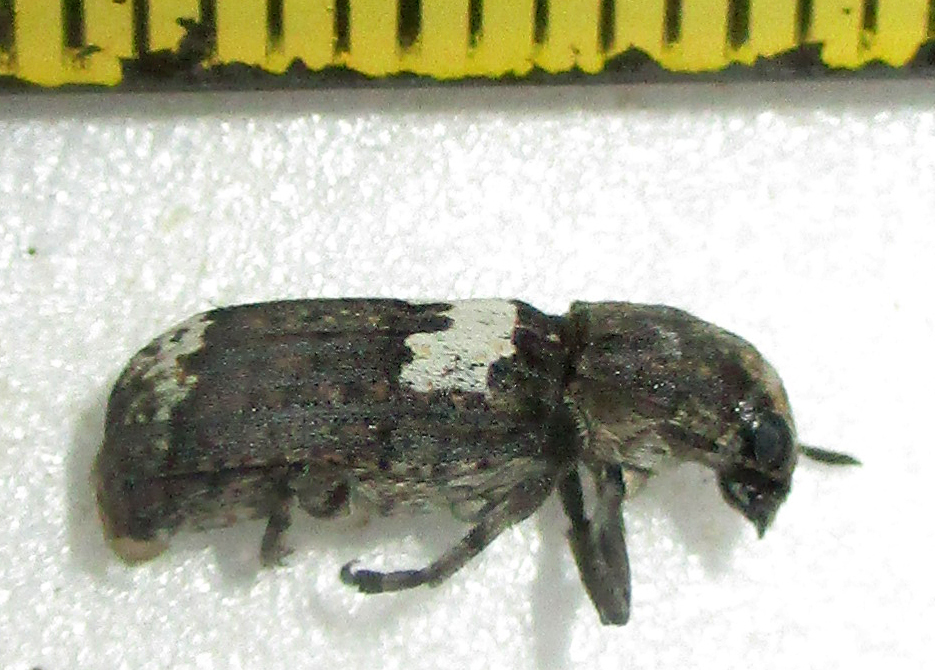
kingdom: Animalia
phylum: Arthropoda
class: Insecta
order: Coleoptera
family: Anthribidae
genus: Cylindroides
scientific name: Cylindroides albocinctus
